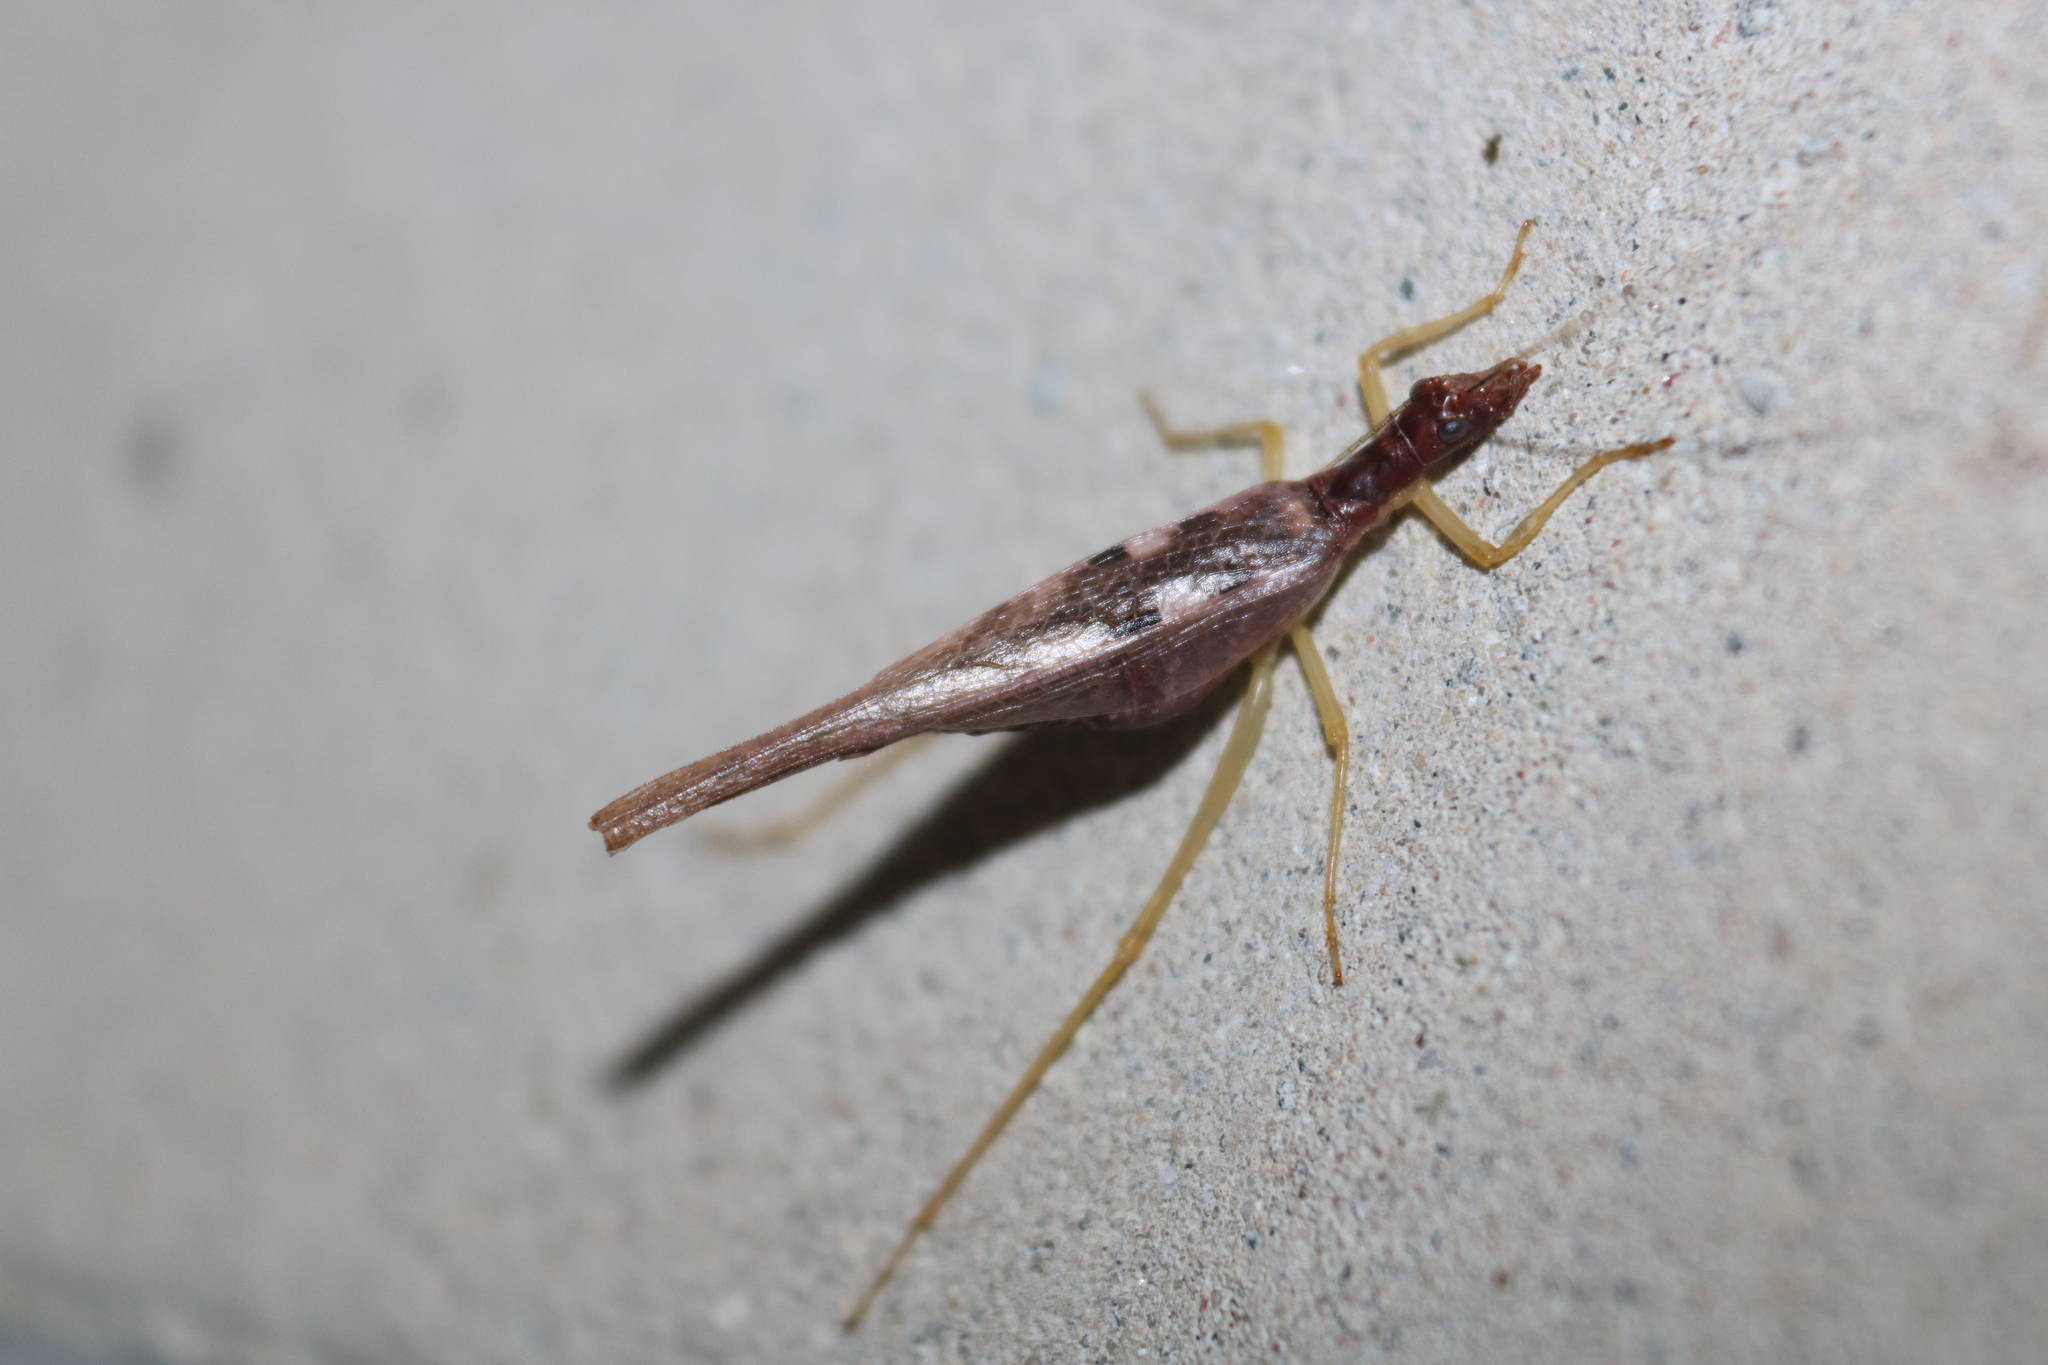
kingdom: Animalia
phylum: Arthropoda
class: Insecta
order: Orthoptera
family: Gryllidae
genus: Neoxabea
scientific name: Neoxabea bipunctata
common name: Two-spotted tree cricket
